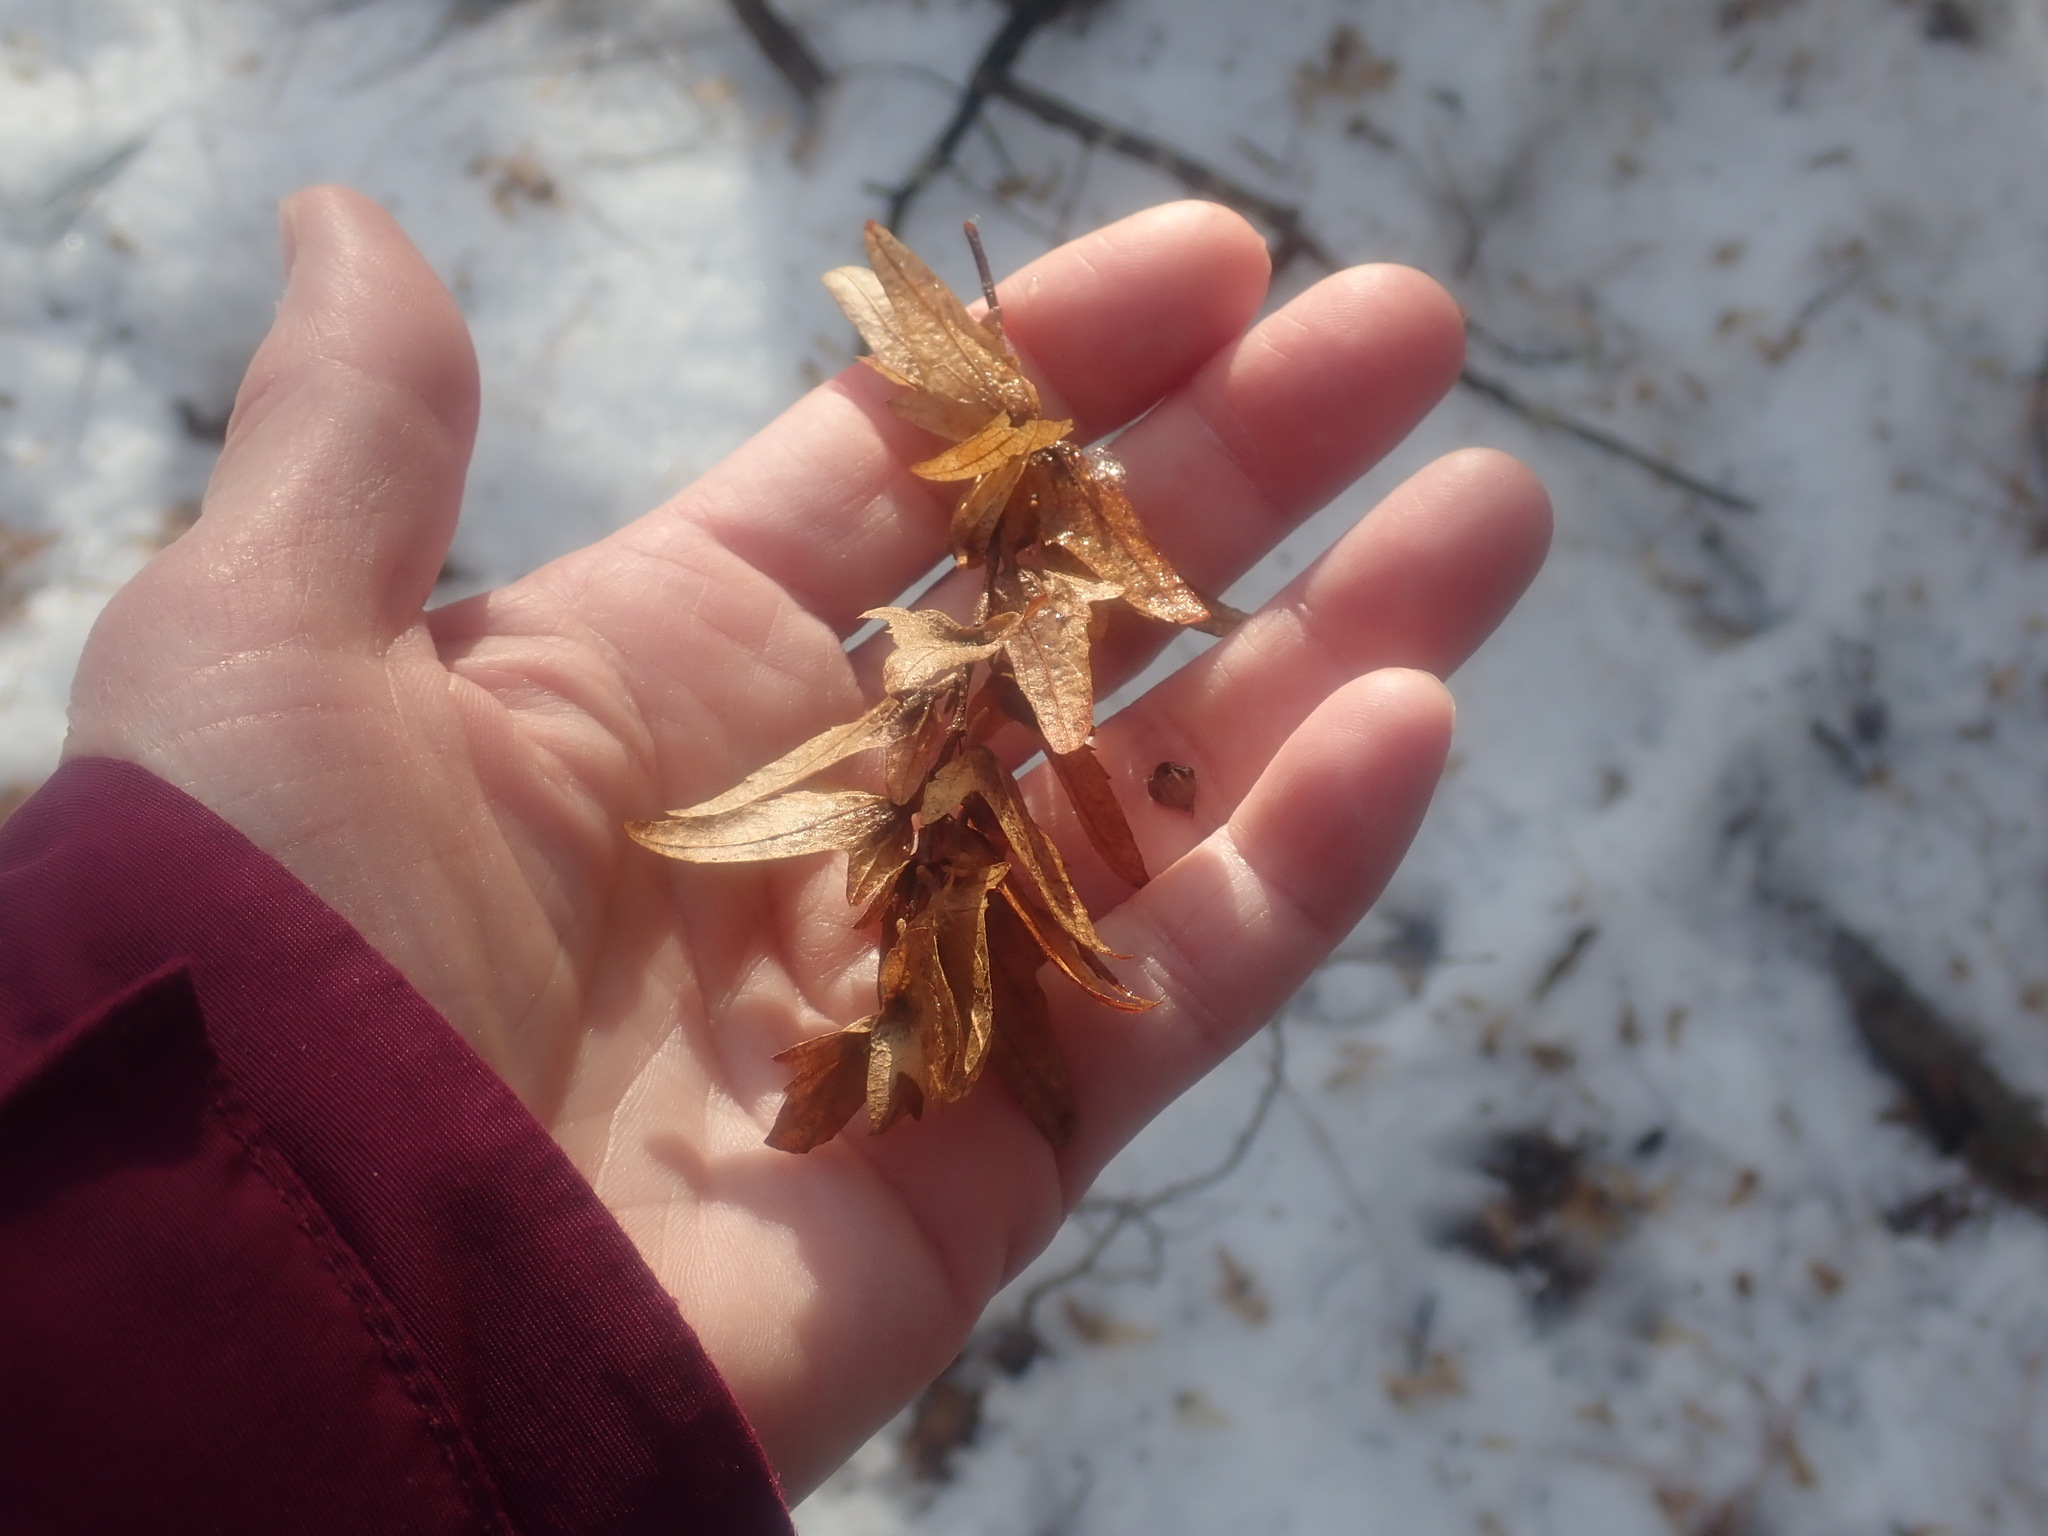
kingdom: Plantae
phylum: Tracheophyta
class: Magnoliopsida
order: Fagales
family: Betulaceae
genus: Carpinus
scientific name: Carpinus caroliniana
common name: American hornbeam
